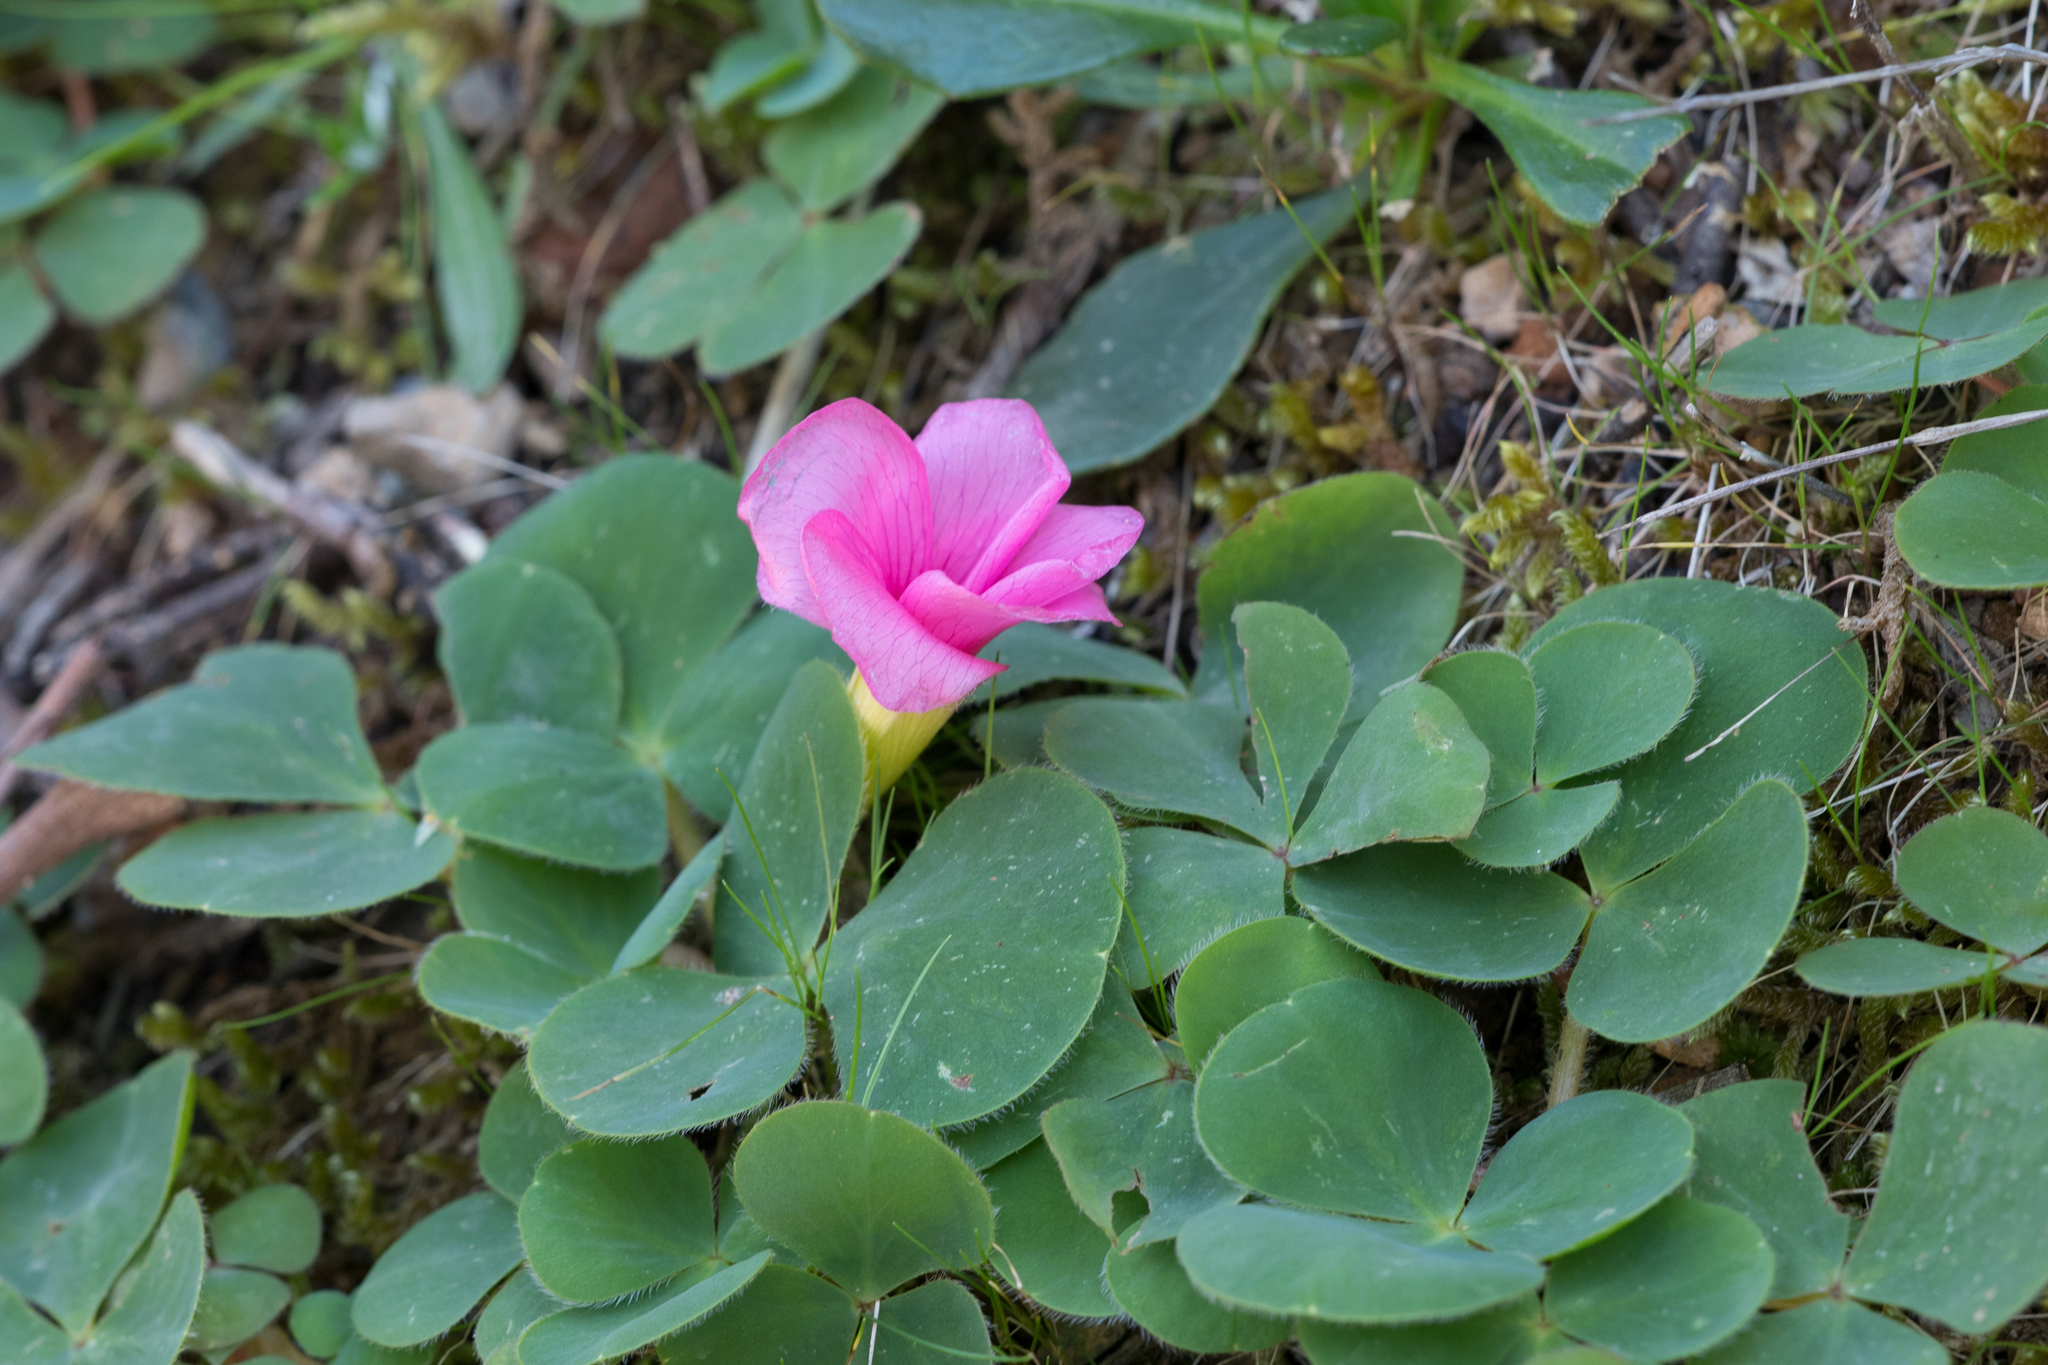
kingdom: Plantae
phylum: Tracheophyta
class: Magnoliopsida
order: Oxalidales
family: Oxalidaceae
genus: Oxalis
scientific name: Oxalis purpurea
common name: Purple woodsorrel
